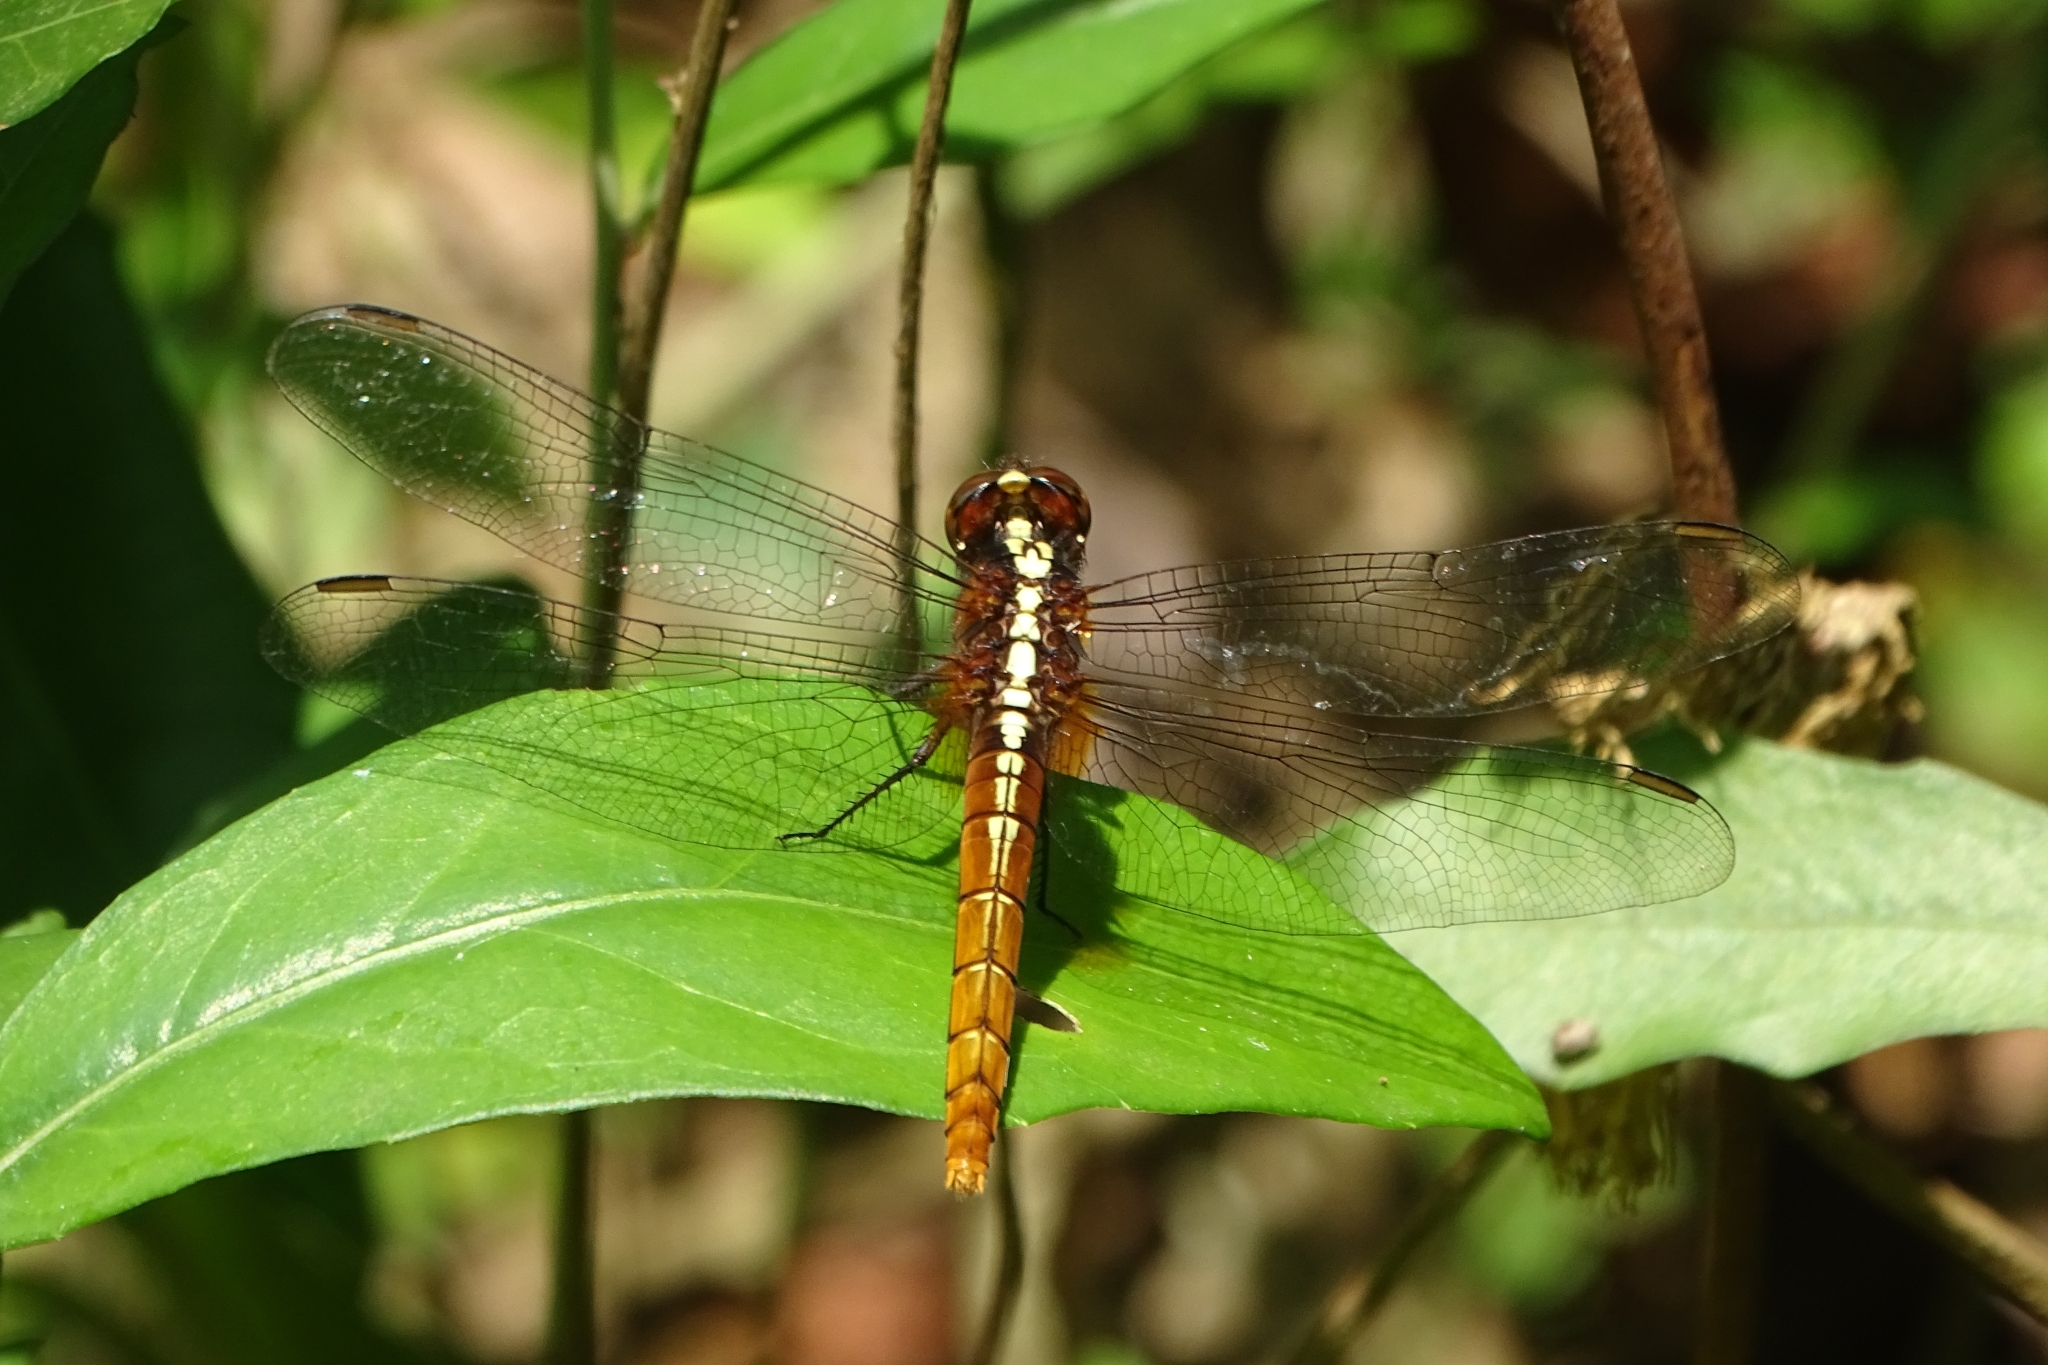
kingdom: Animalia
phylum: Arthropoda
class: Insecta
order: Odonata
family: Libellulidae
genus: Rhodothemis
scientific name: Rhodothemis rufa
